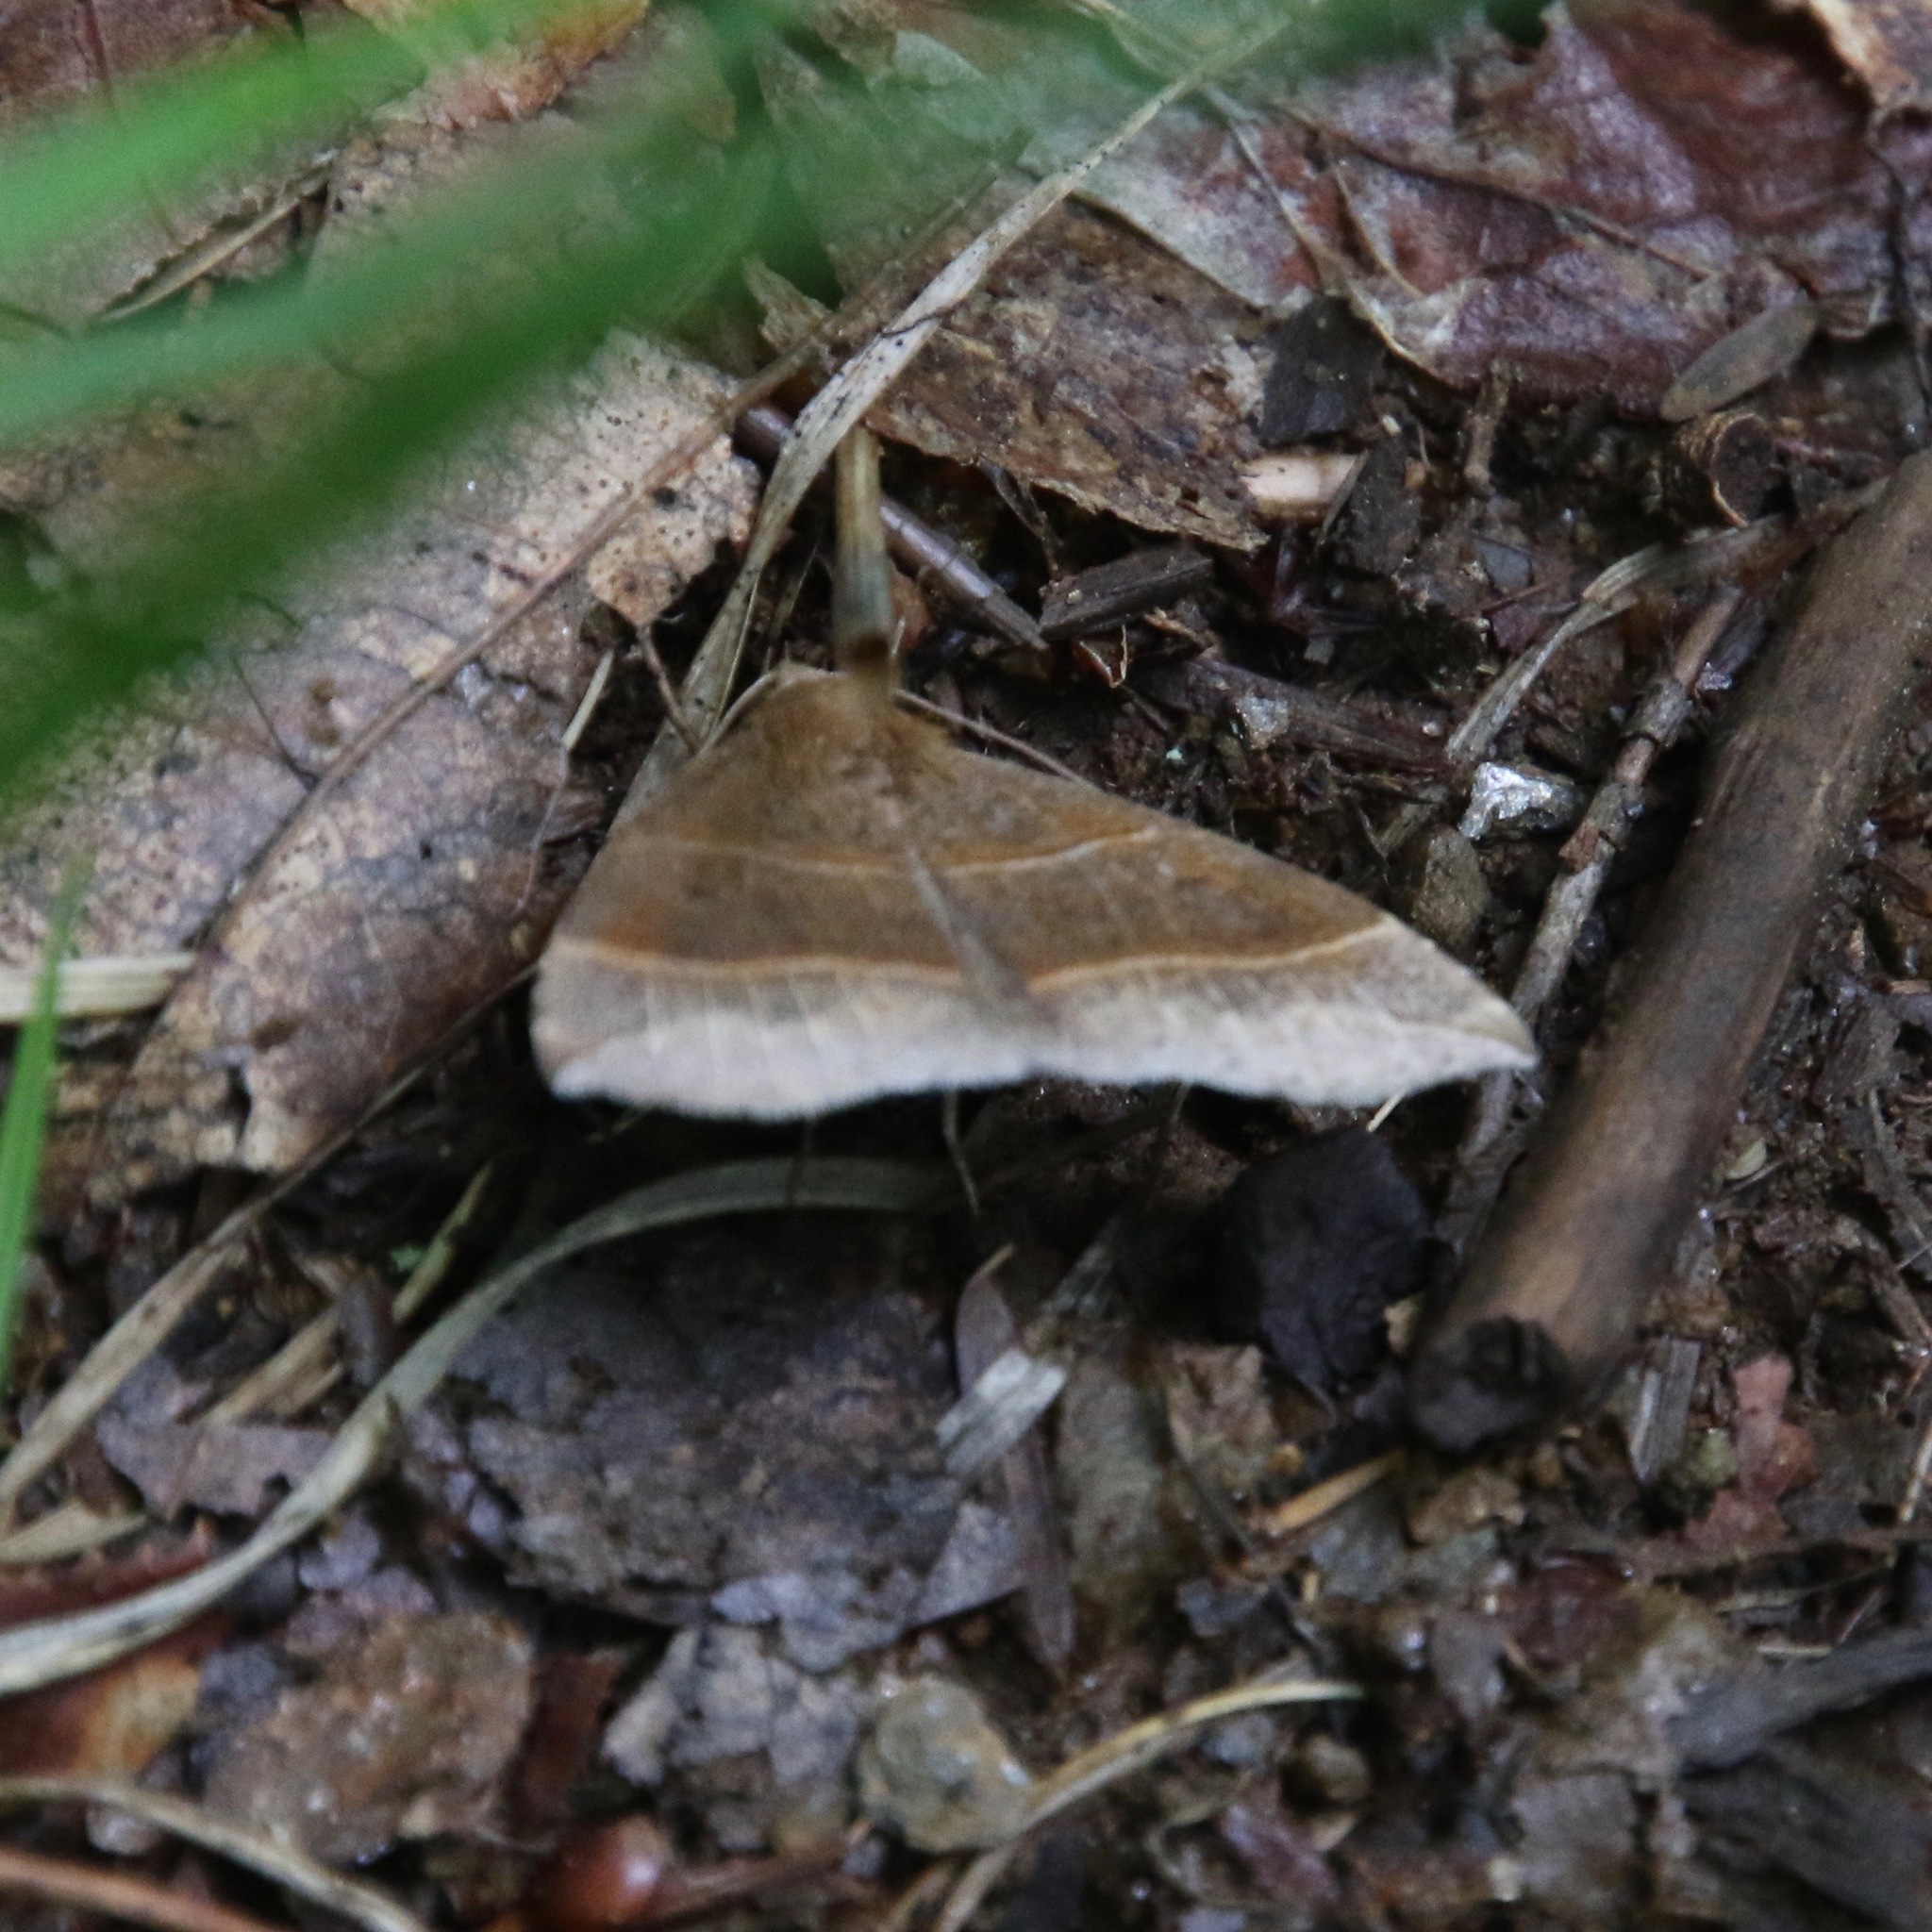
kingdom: Animalia
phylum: Arthropoda
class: Insecta
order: Lepidoptera
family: Erebidae
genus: Parallelia
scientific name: Parallelia bistriaris
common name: Maple looper moth
